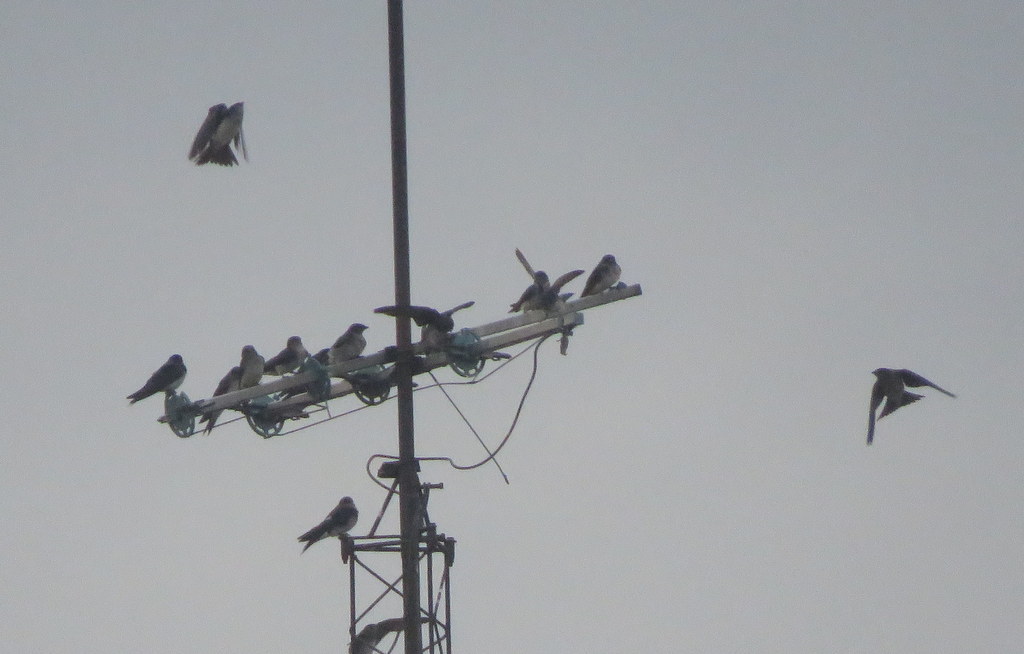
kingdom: Animalia
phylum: Chordata
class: Aves
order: Passeriformes
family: Hirundinidae
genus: Progne
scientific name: Progne chalybea
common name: Grey-breasted martin
